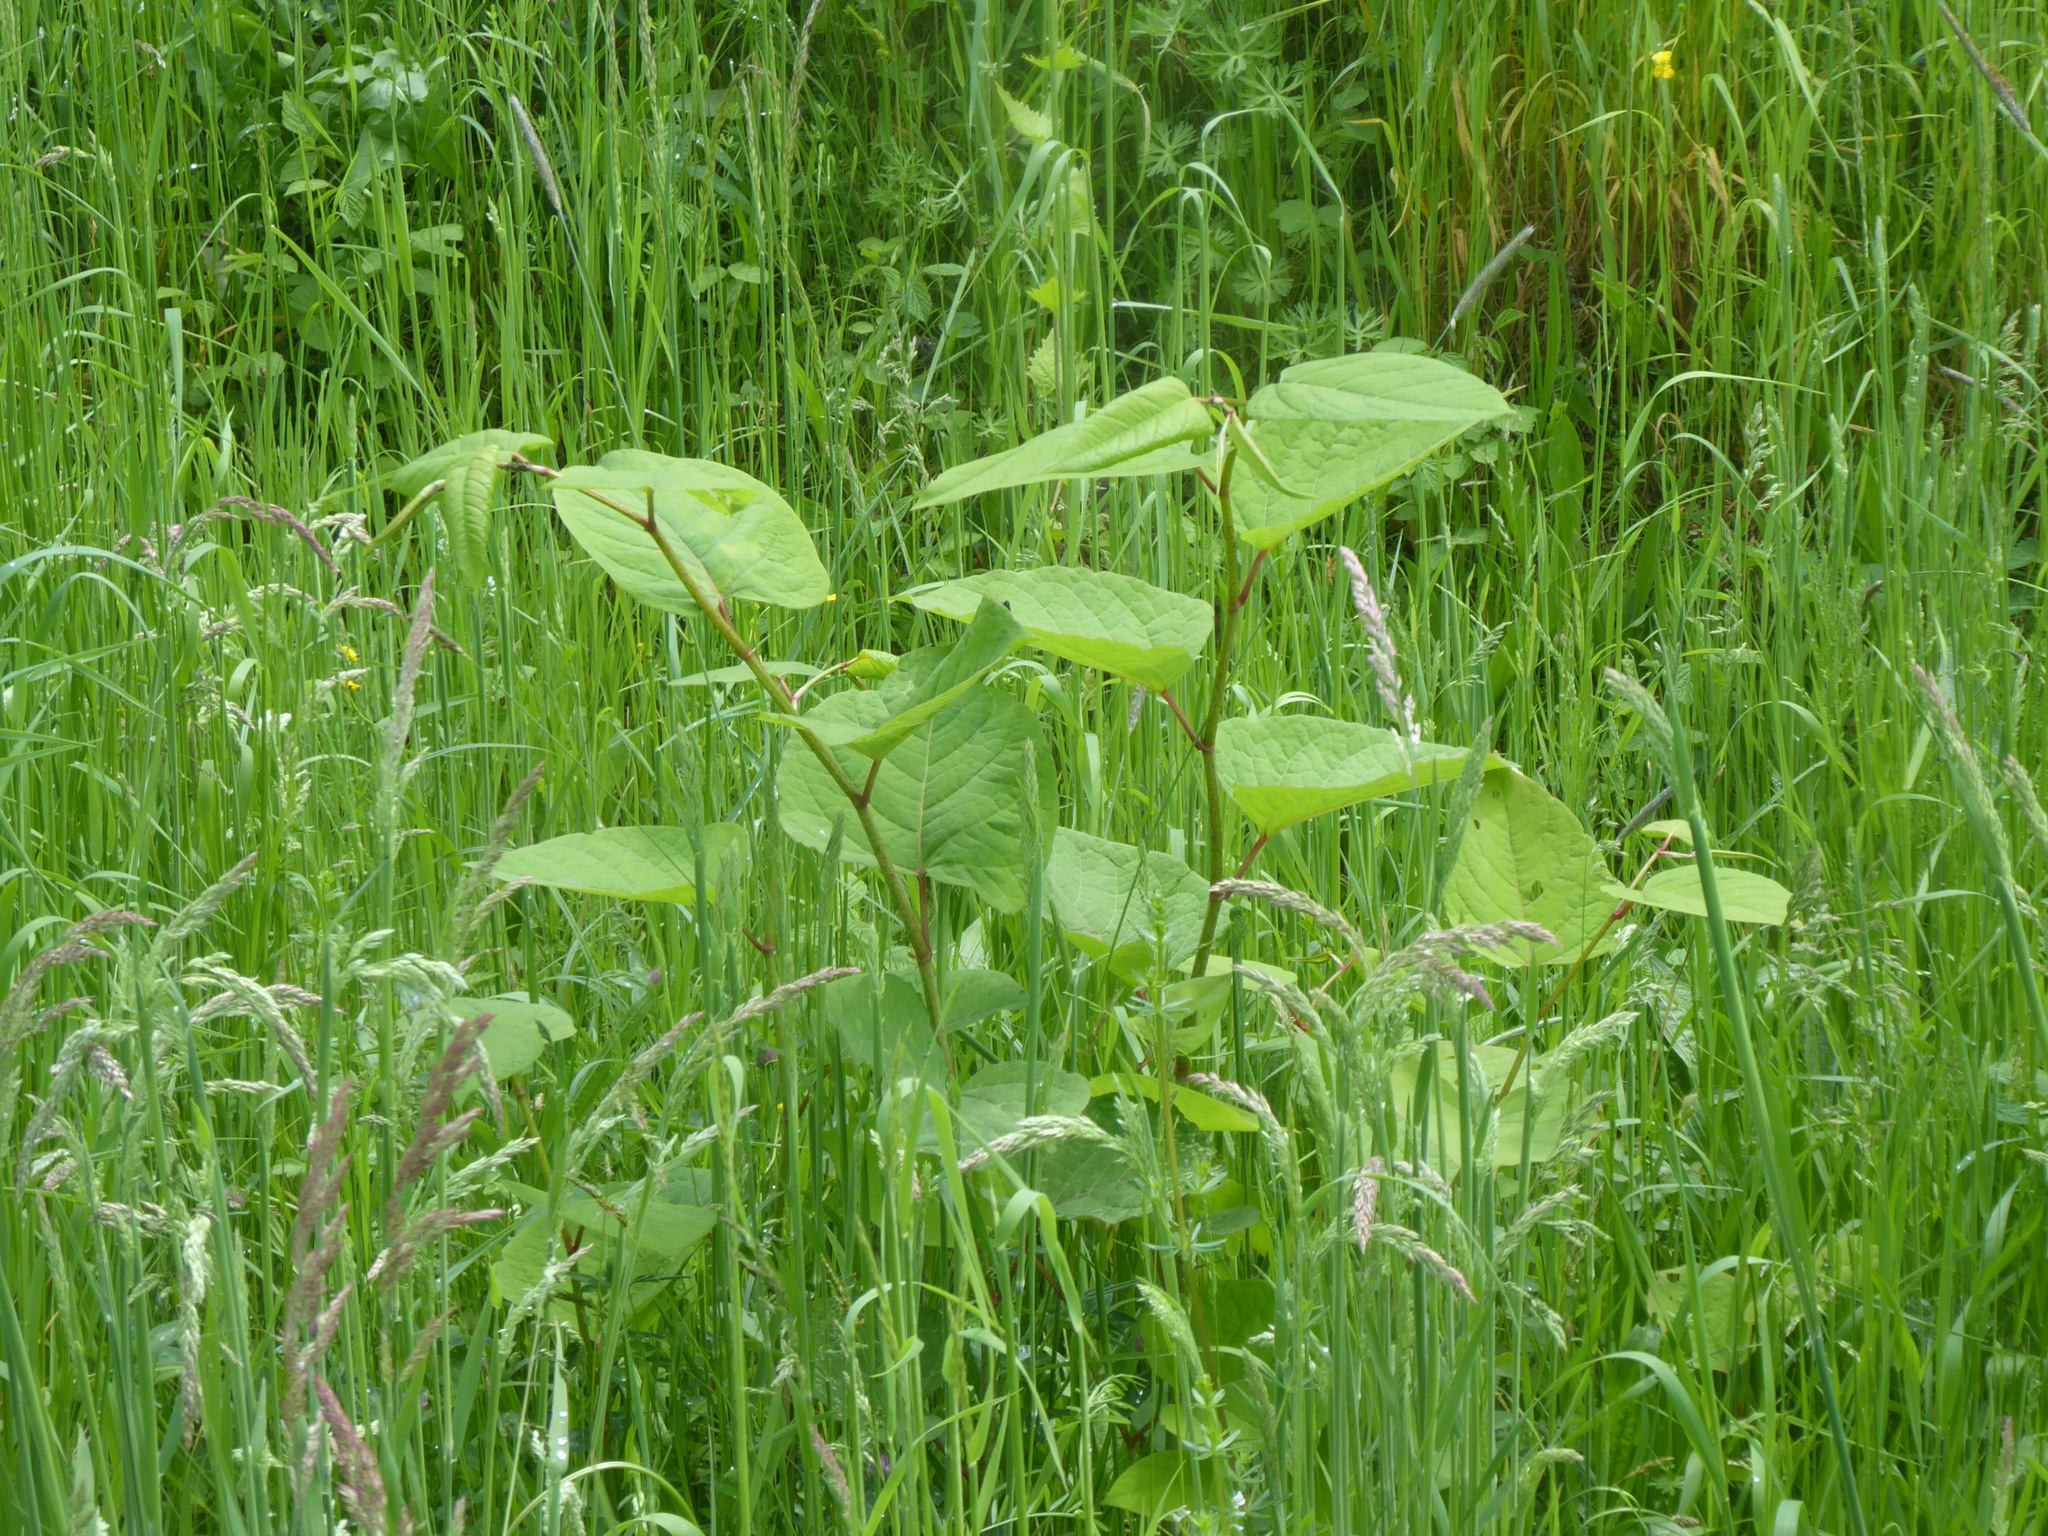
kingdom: Plantae
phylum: Tracheophyta
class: Magnoliopsida
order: Caryophyllales
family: Polygonaceae
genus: Reynoutria
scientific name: Reynoutria bohemica
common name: Bohemian knotweed
